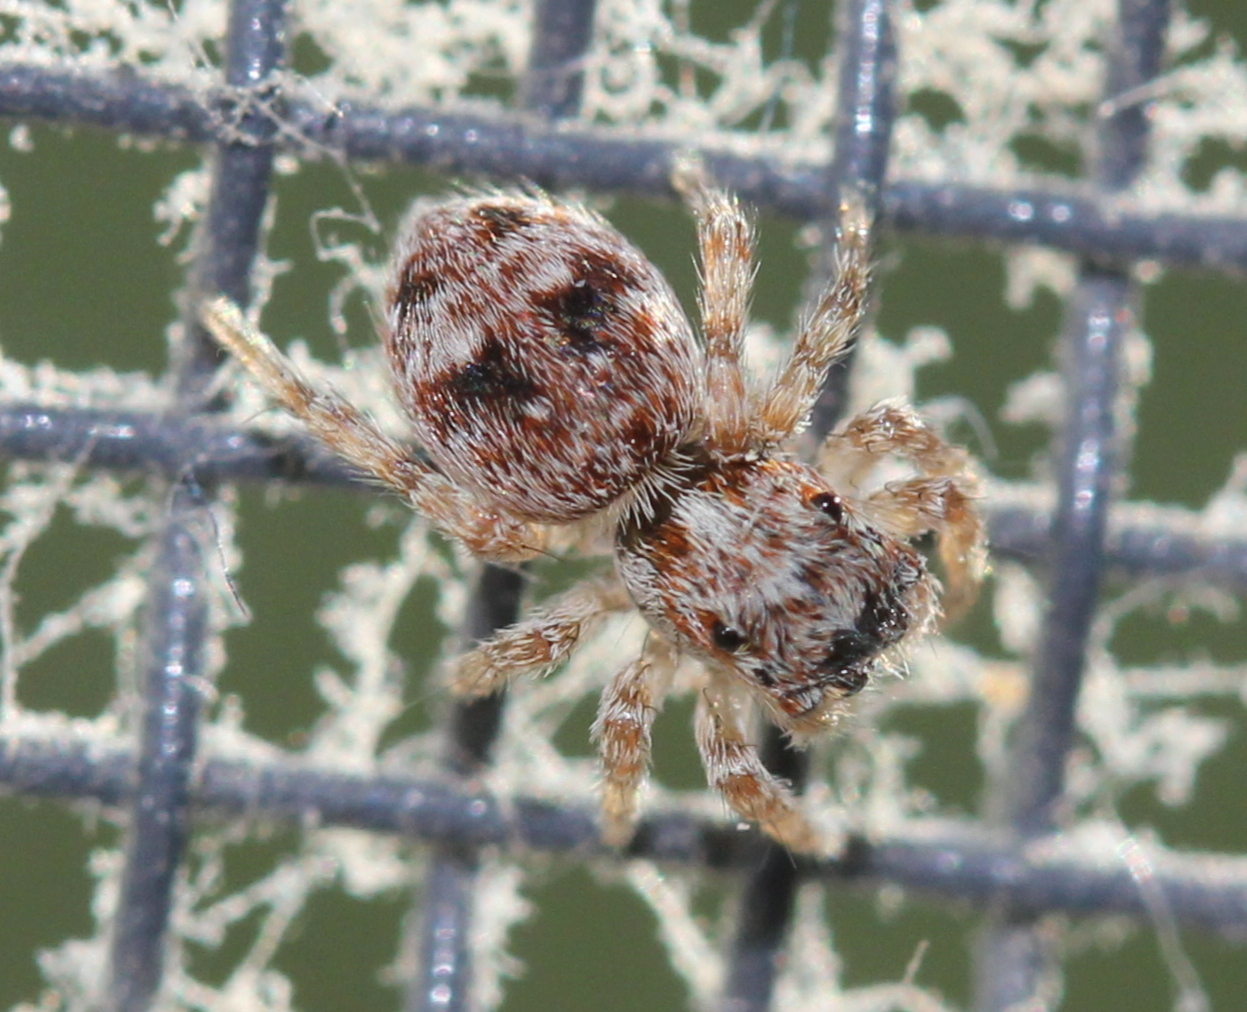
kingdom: Animalia
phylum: Arthropoda
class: Arachnida
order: Araneae
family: Salticidae
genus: Attulus
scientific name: Attulus fasciger
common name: Asiatic wall jumping spider
